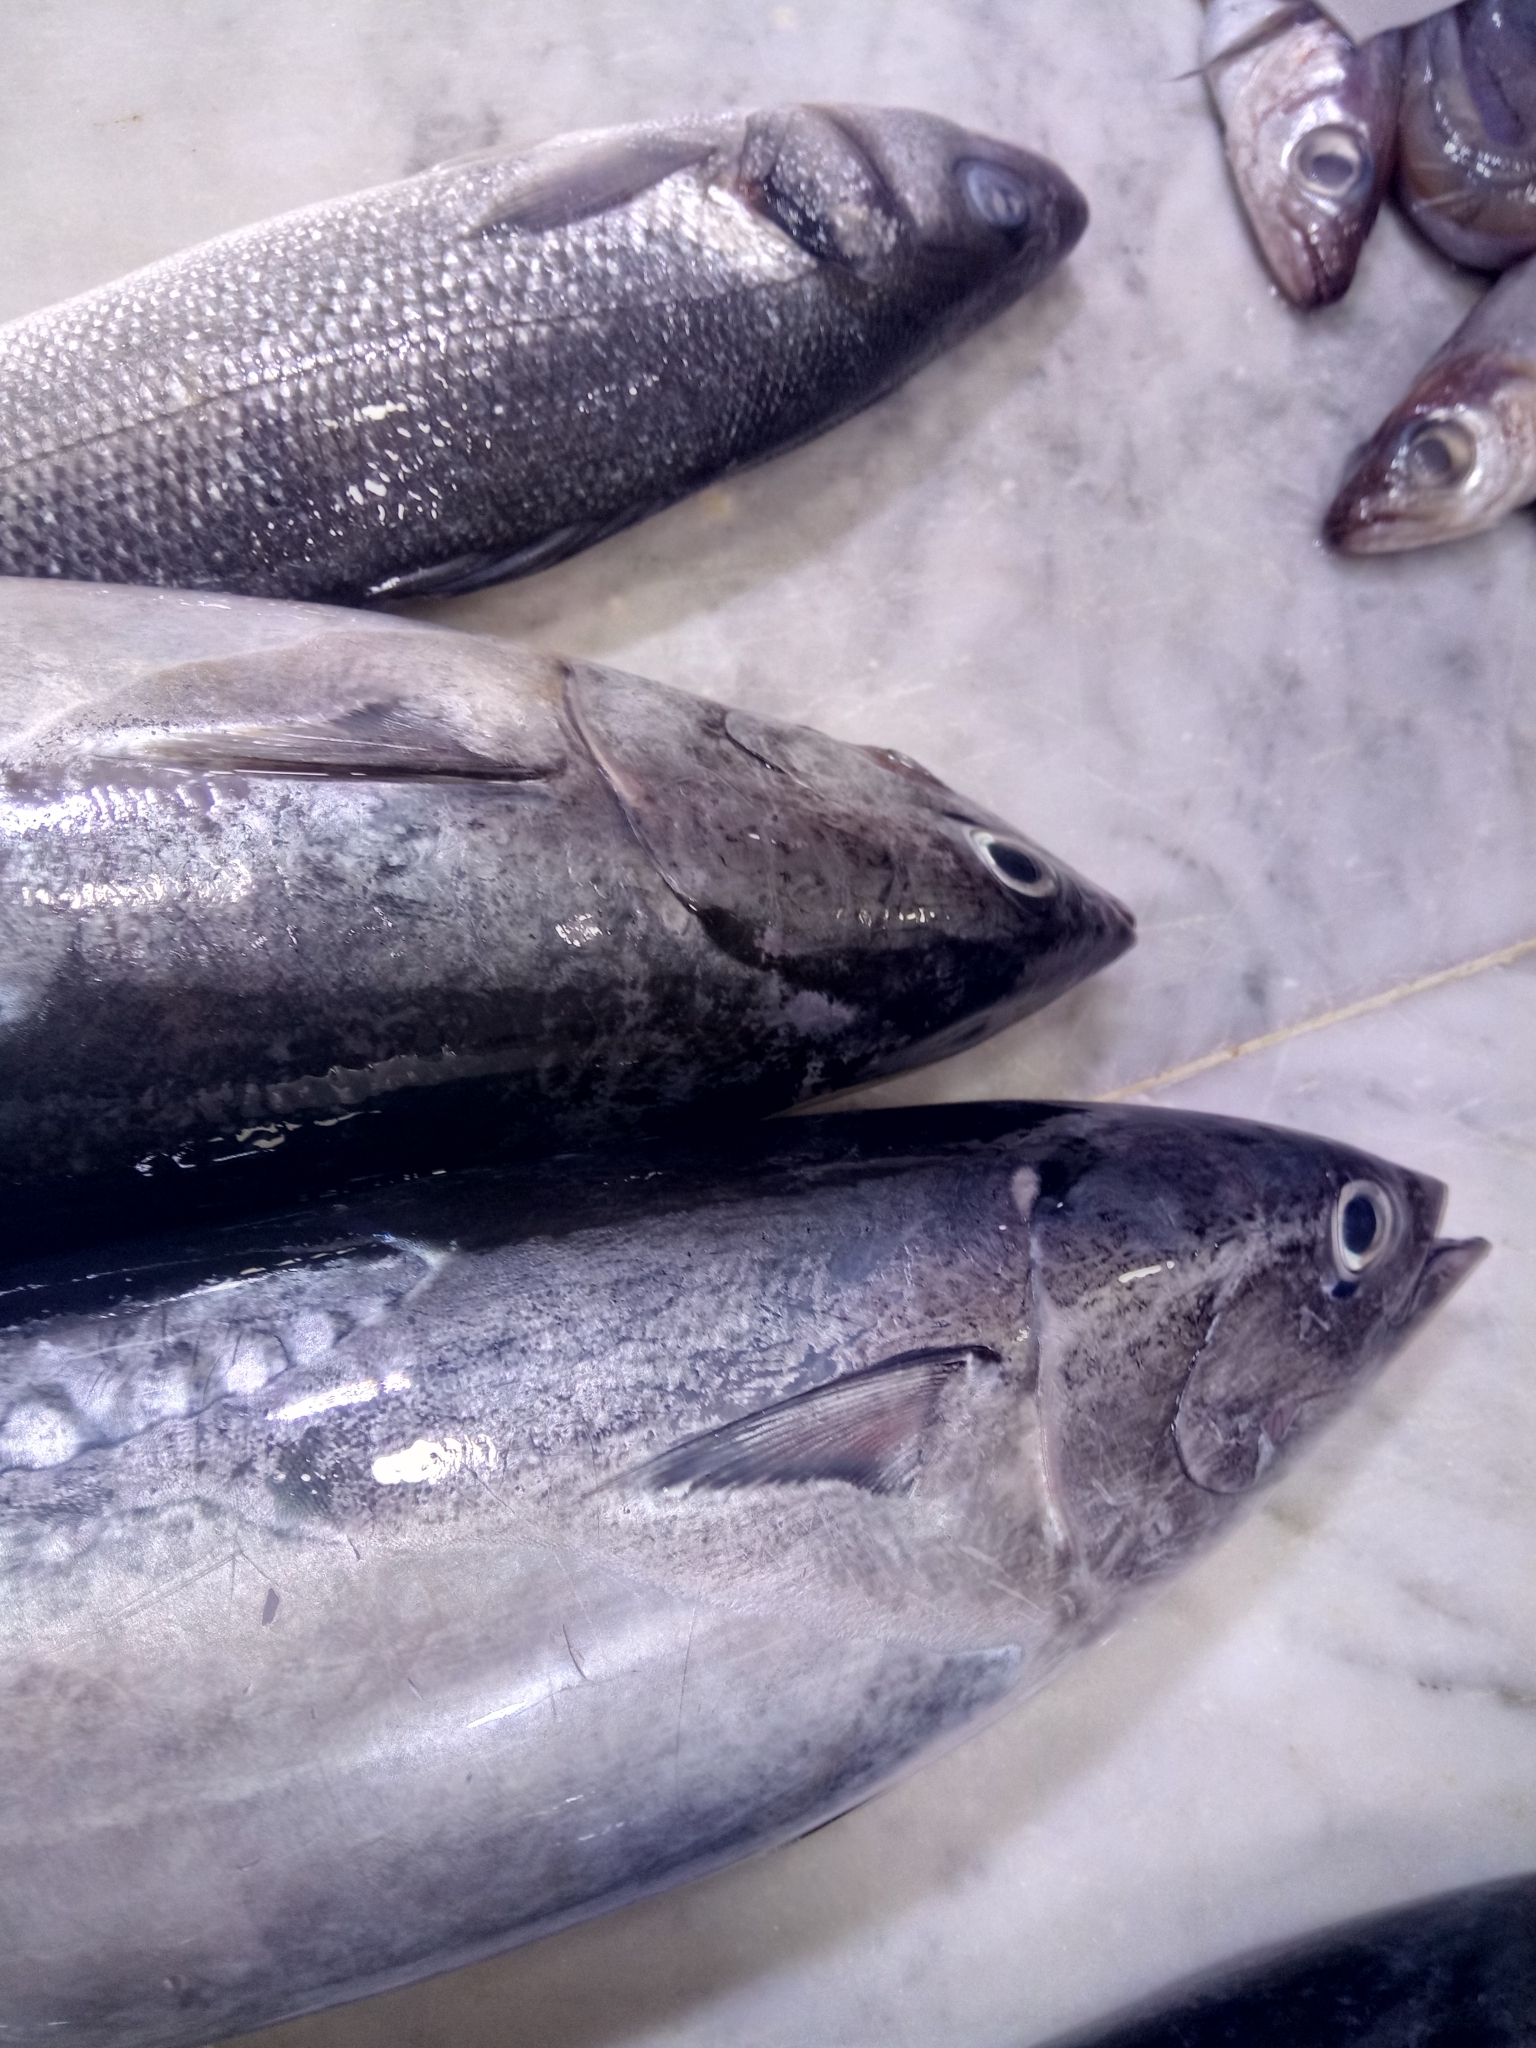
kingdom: Animalia
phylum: Chordata
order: Perciformes
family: Scombridae
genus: Auxis
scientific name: Auxis rochei
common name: Bullet tuna
